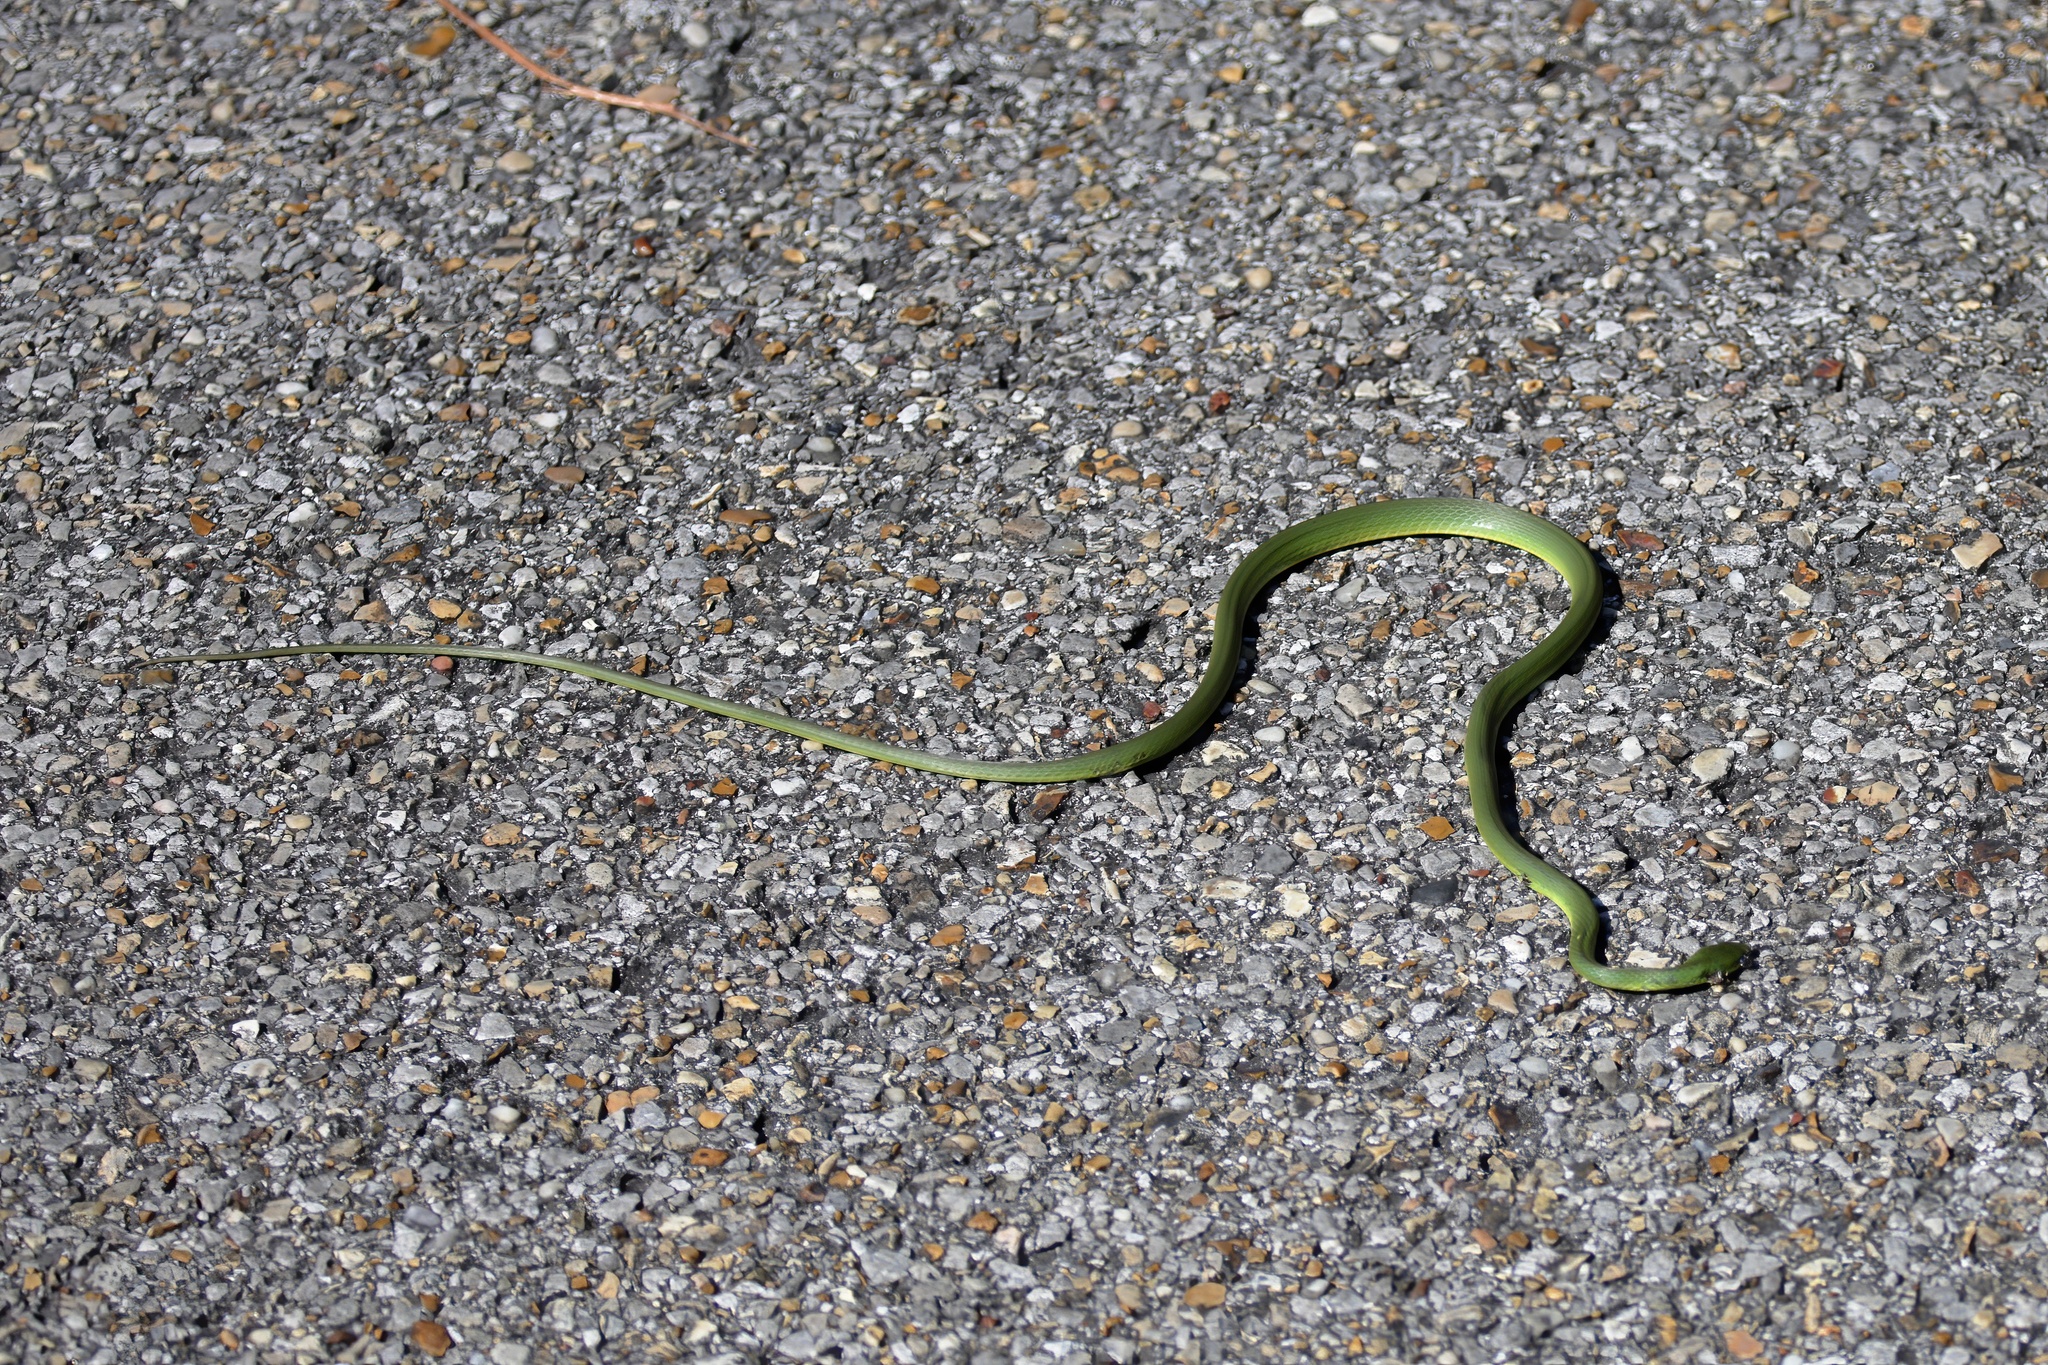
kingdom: Animalia
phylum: Chordata
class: Squamata
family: Colubridae
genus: Opheodrys
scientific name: Opheodrys aestivus
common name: Rough greensnake
